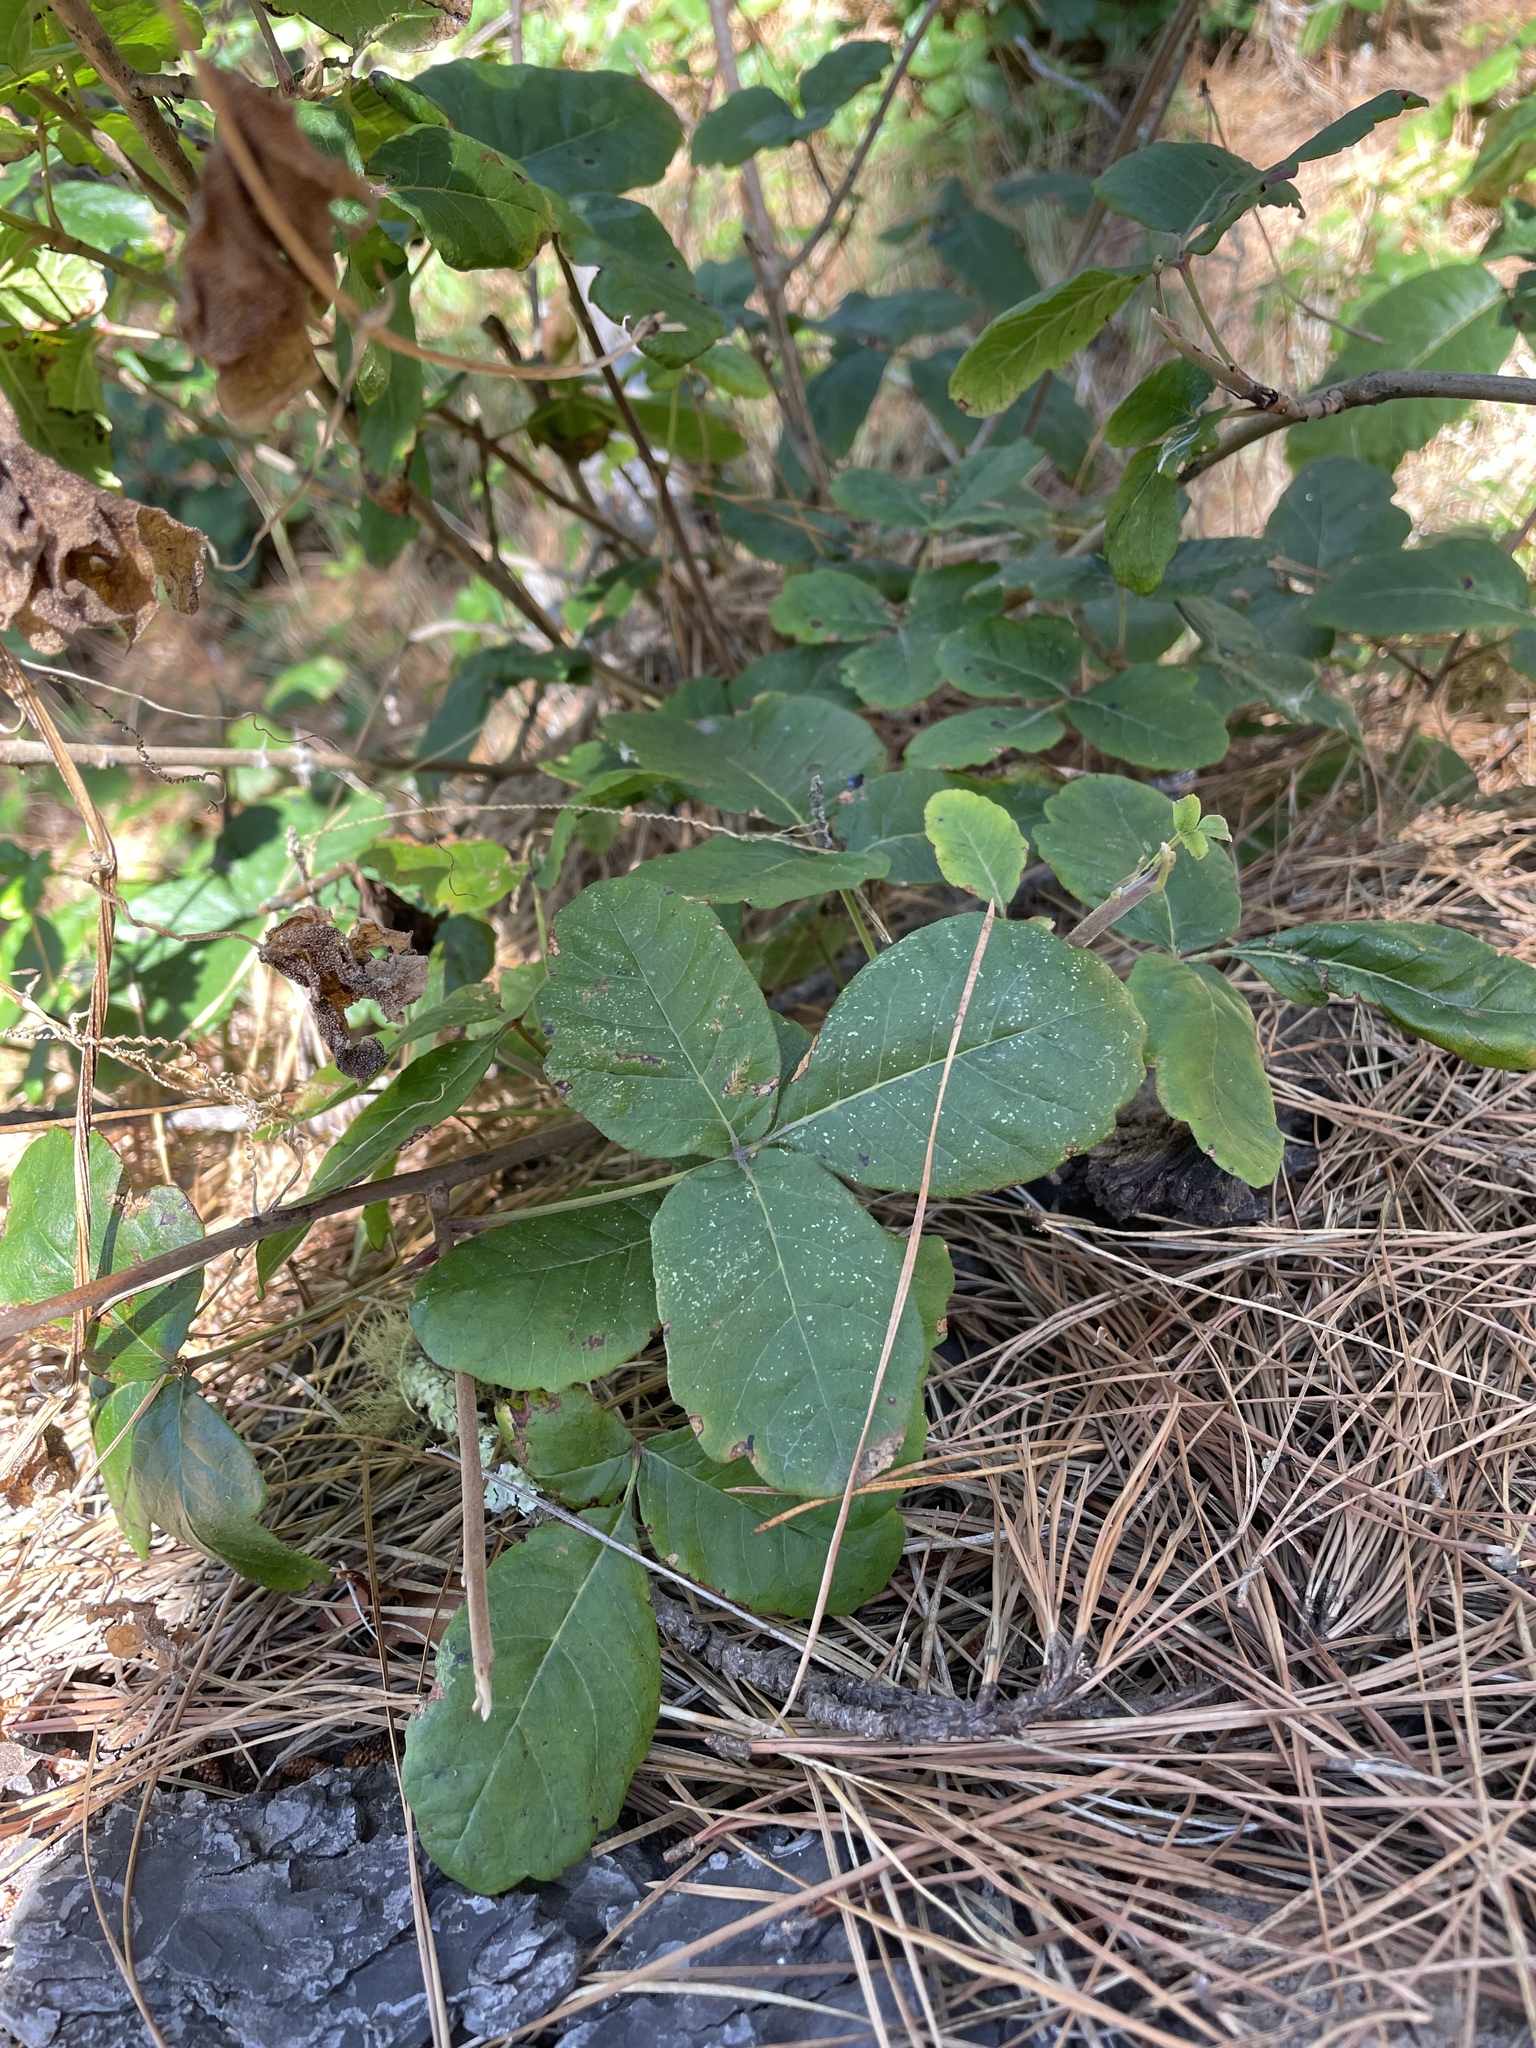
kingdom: Plantae
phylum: Tracheophyta
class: Magnoliopsida
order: Sapindales
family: Anacardiaceae
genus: Toxicodendron
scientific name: Toxicodendron diversilobum
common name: Pacific poison-oak
